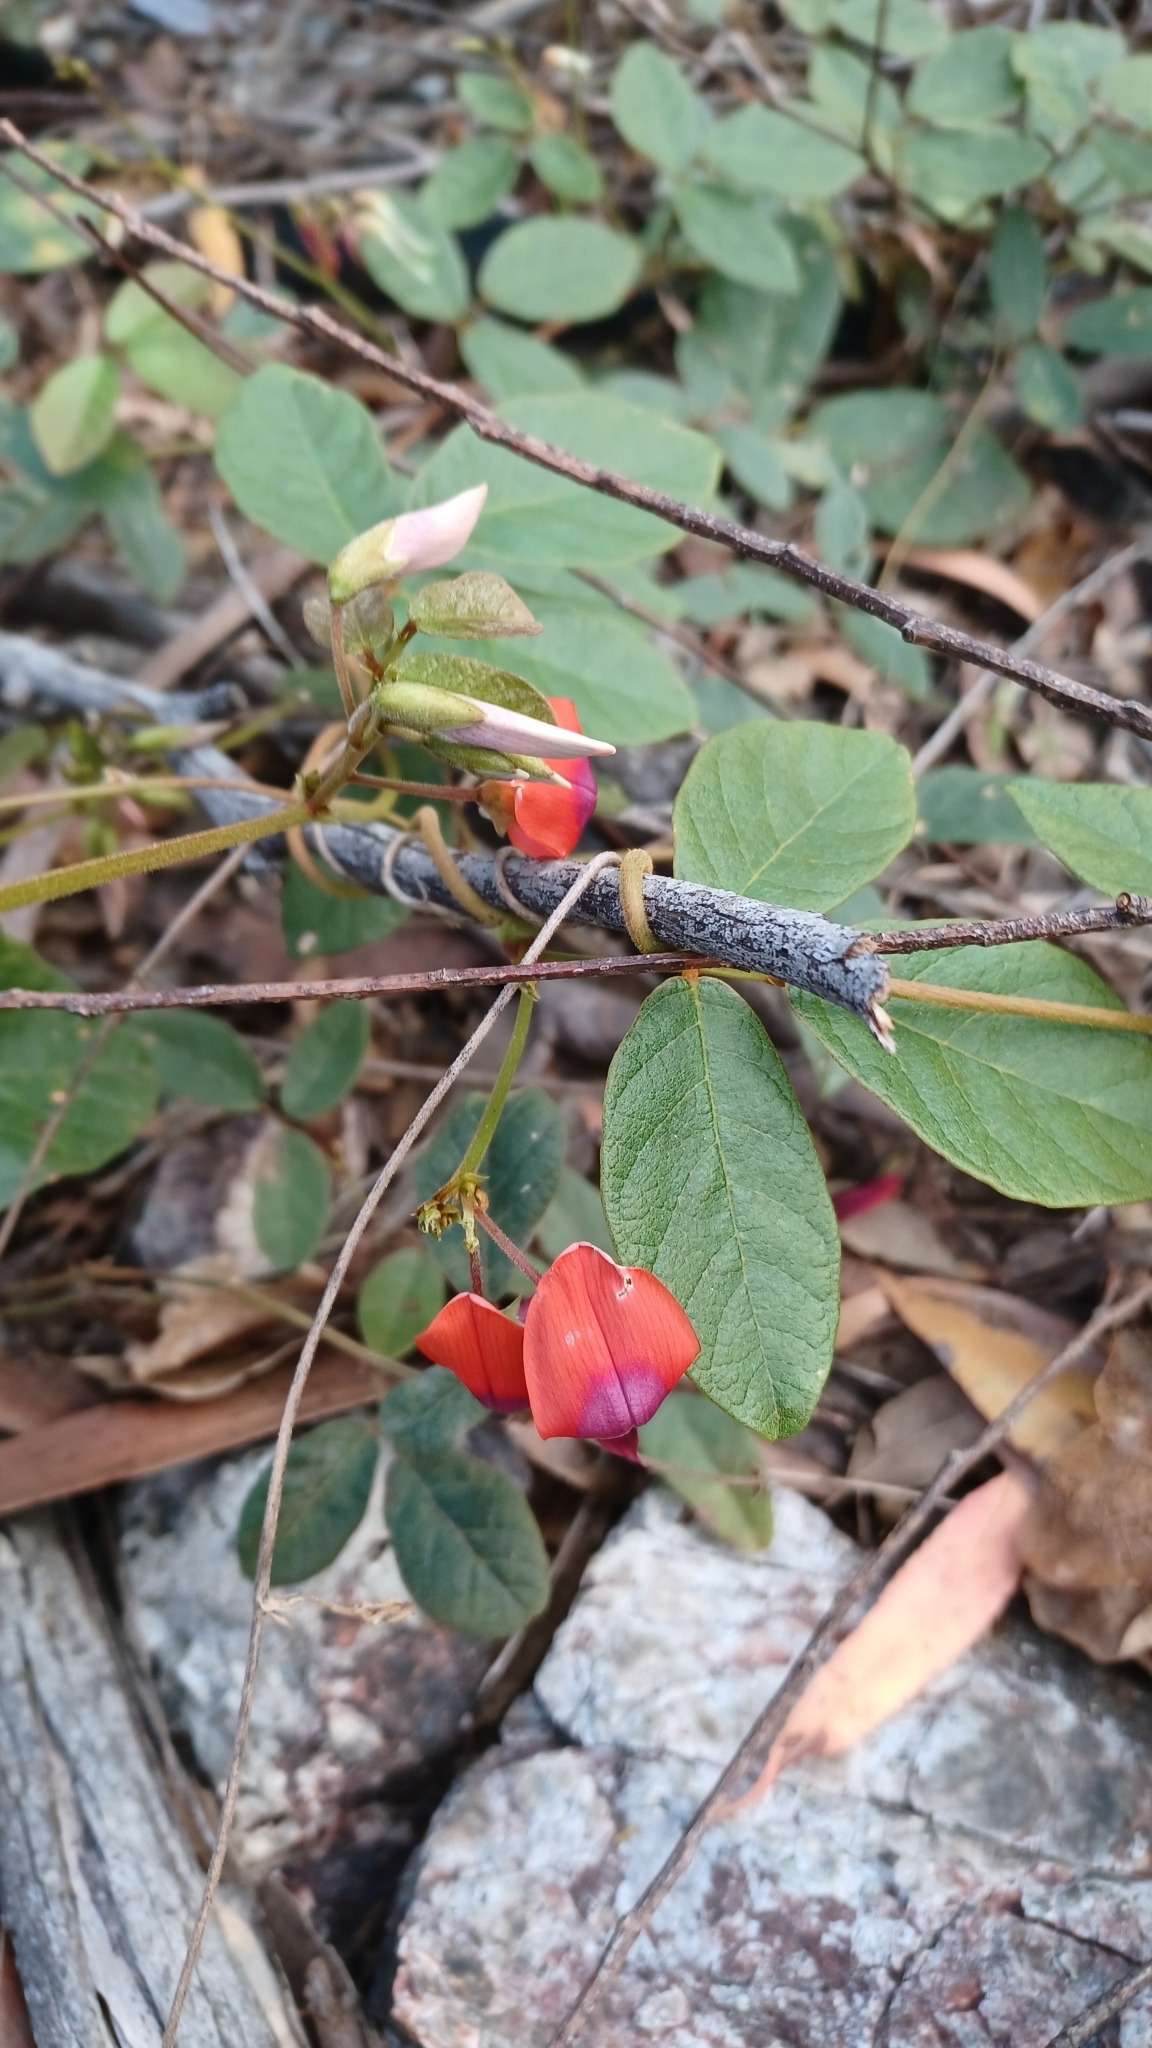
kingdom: Plantae
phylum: Tracheophyta
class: Magnoliopsida
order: Fabales
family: Fabaceae
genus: Kennedia
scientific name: Kennedia rubicunda
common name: Red kennedy-pea
